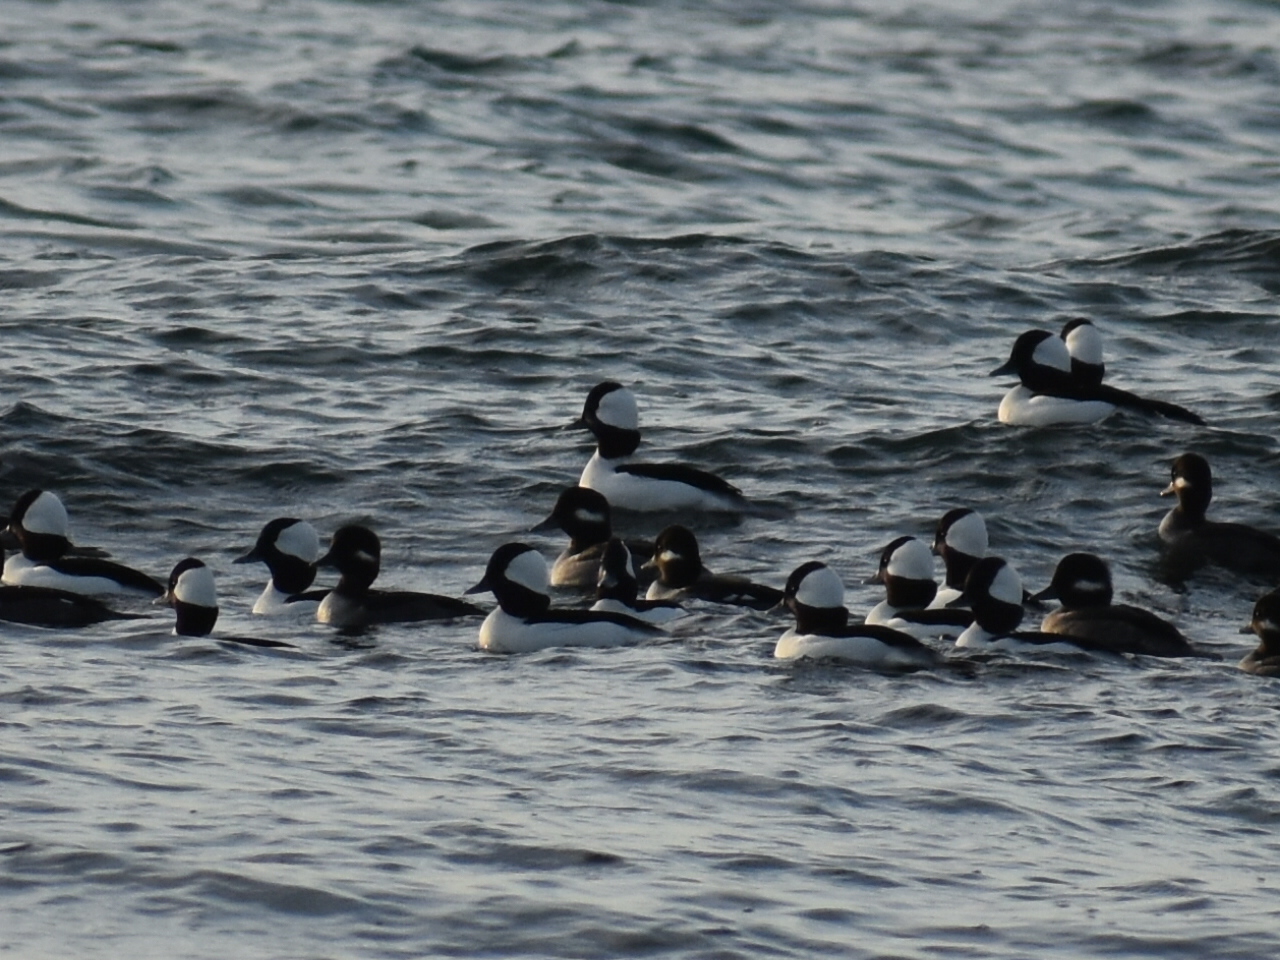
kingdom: Animalia
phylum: Chordata
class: Aves
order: Anseriformes
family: Anatidae
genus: Bucephala
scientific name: Bucephala albeola
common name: Bufflehead
